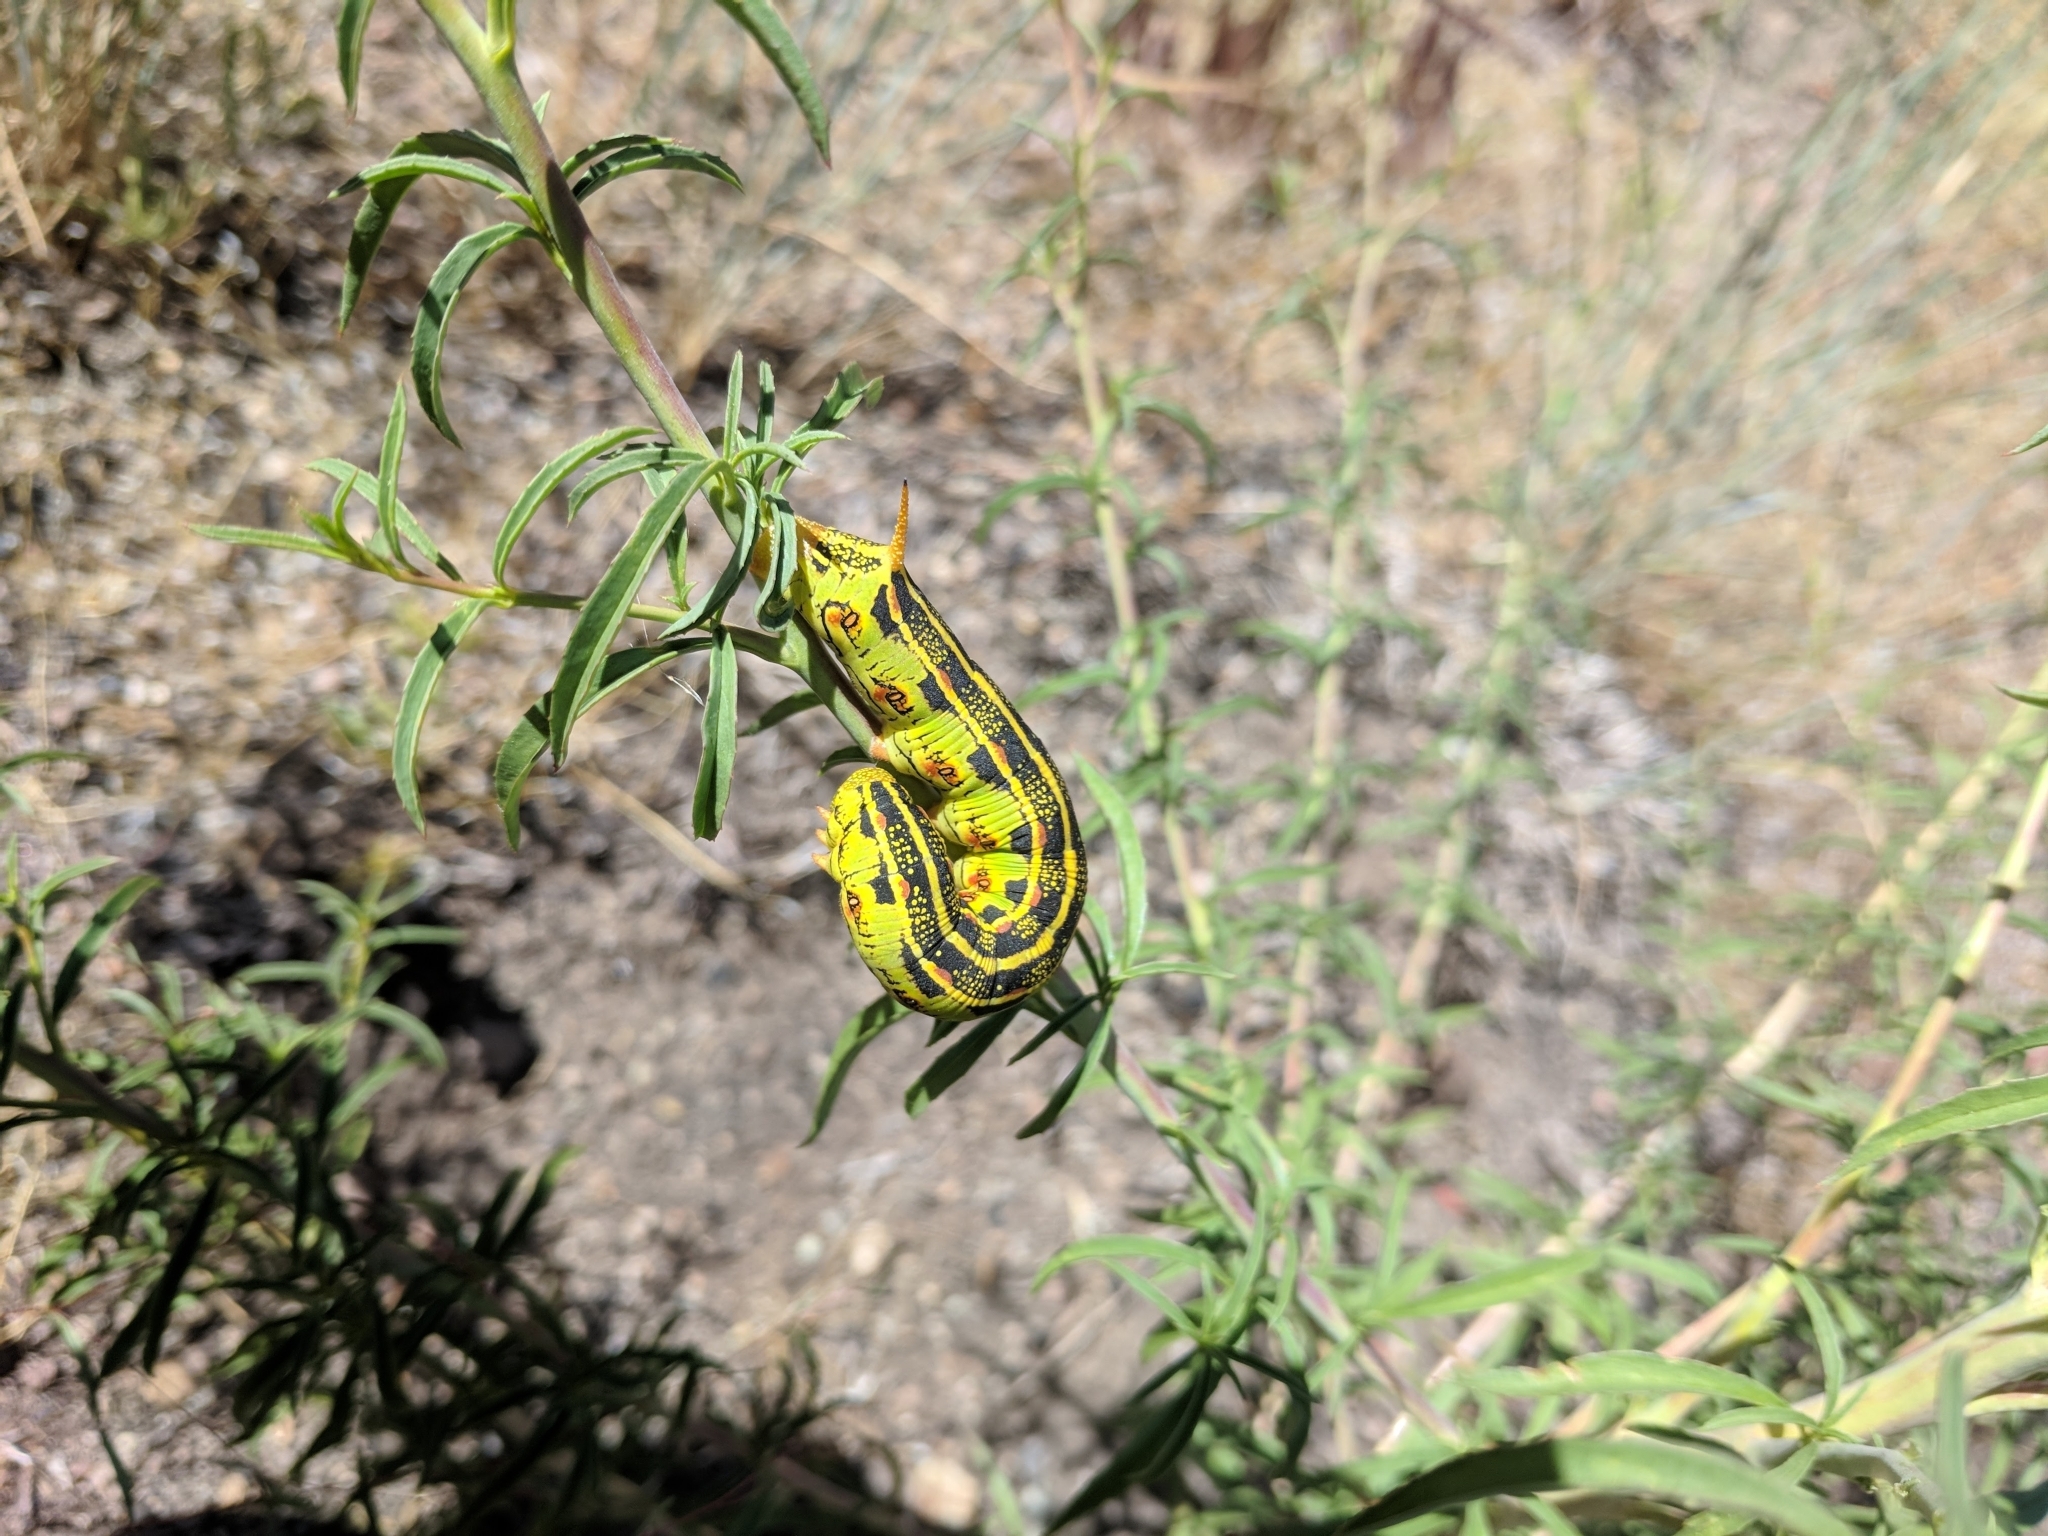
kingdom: Animalia
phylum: Arthropoda
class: Insecta
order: Lepidoptera
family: Sphingidae
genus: Hyles
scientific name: Hyles lineata
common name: White-lined sphinx
